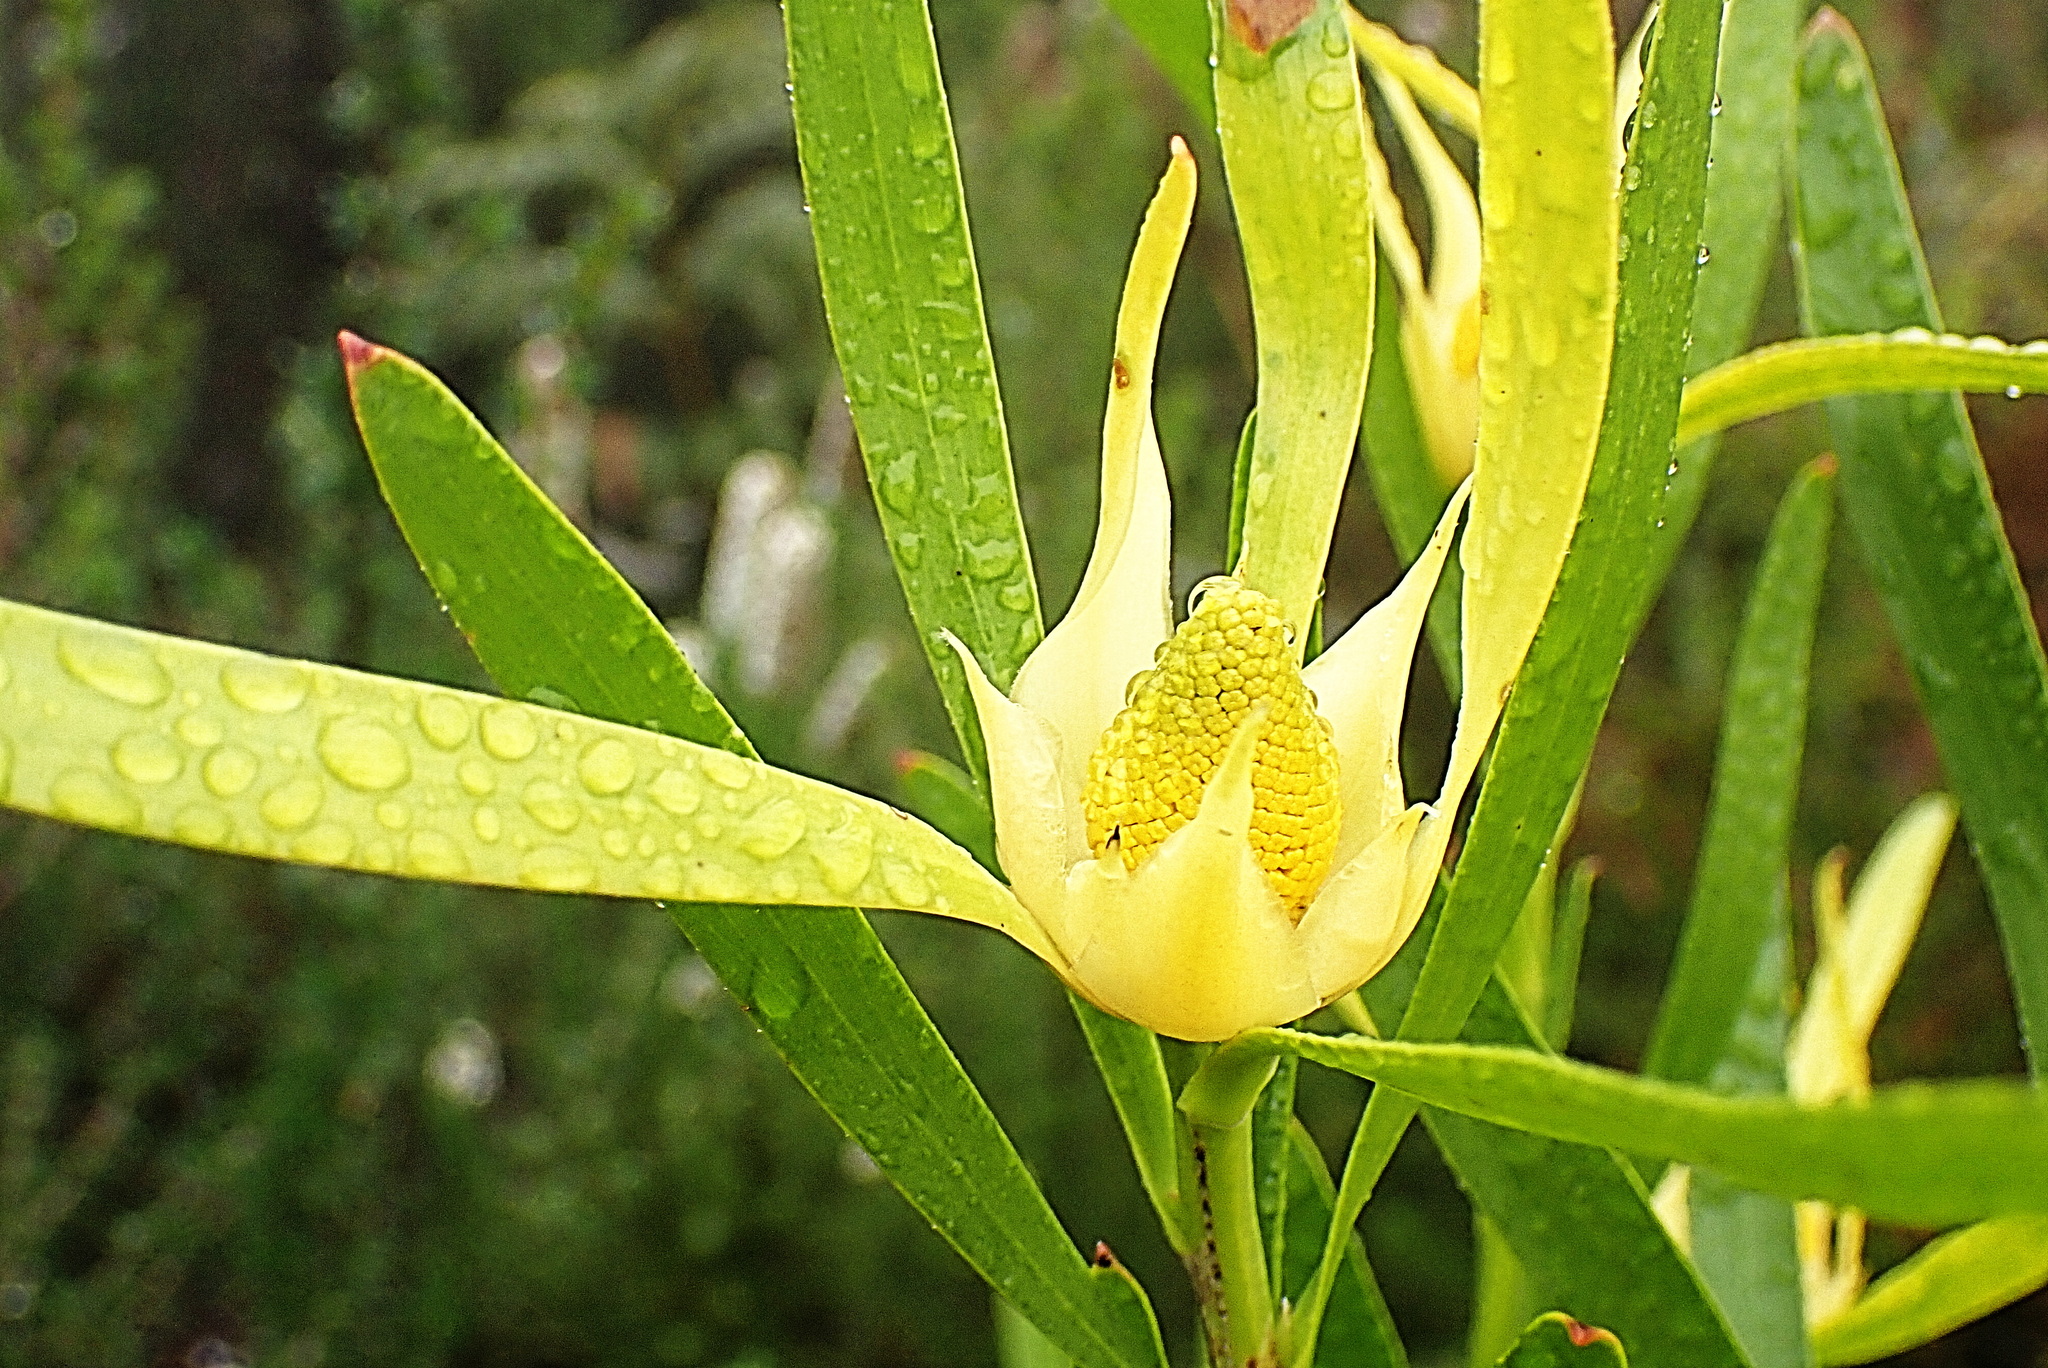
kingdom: Plantae
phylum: Tracheophyta
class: Magnoliopsida
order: Proteales
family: Proteaceae
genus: Leucadendron
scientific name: Leucadendron eucalyptifolium
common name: Gum-leaved conebush
